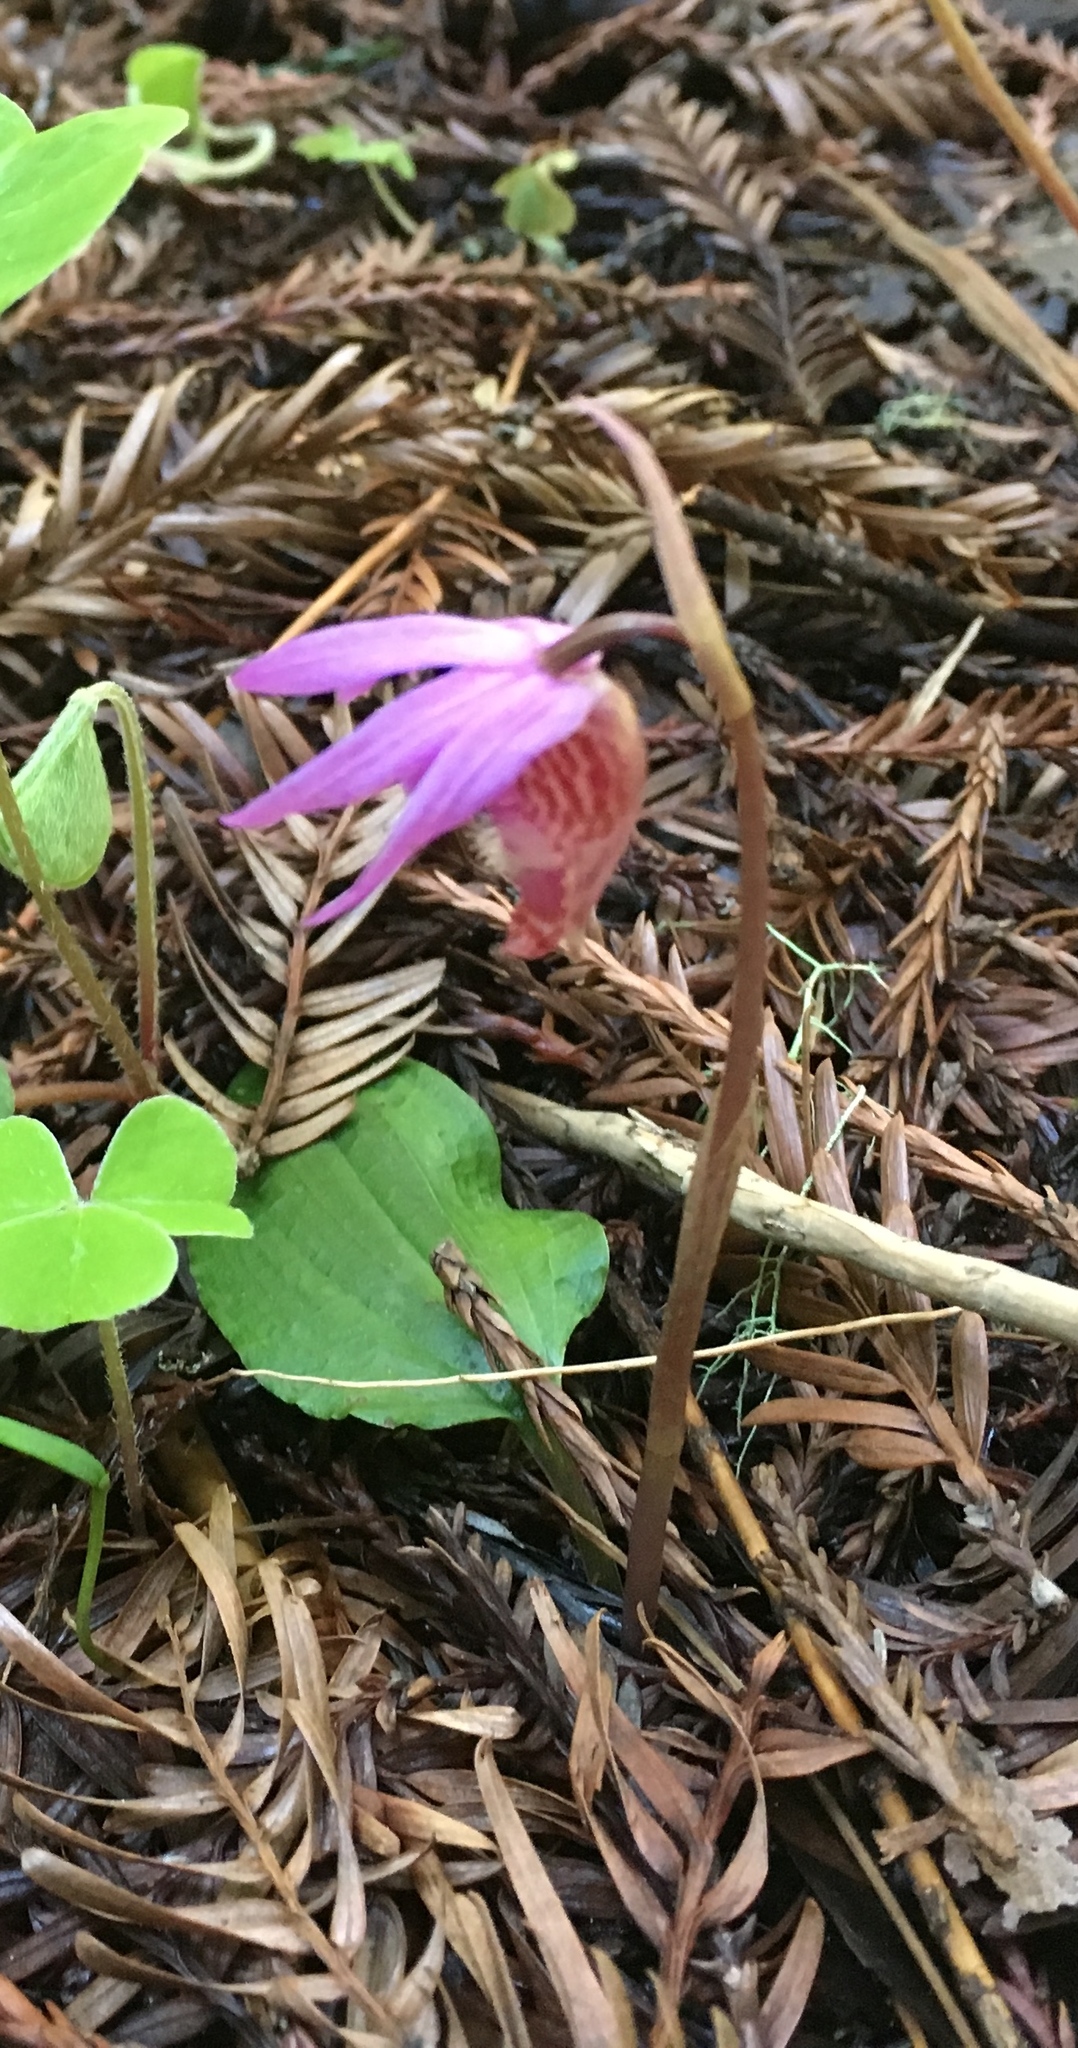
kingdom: Plantae
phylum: Tracheophyta
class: Liliopsida
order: Asparagales
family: Orchidaceae
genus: Calypso
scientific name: Calypso bulbosa
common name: Calypso
